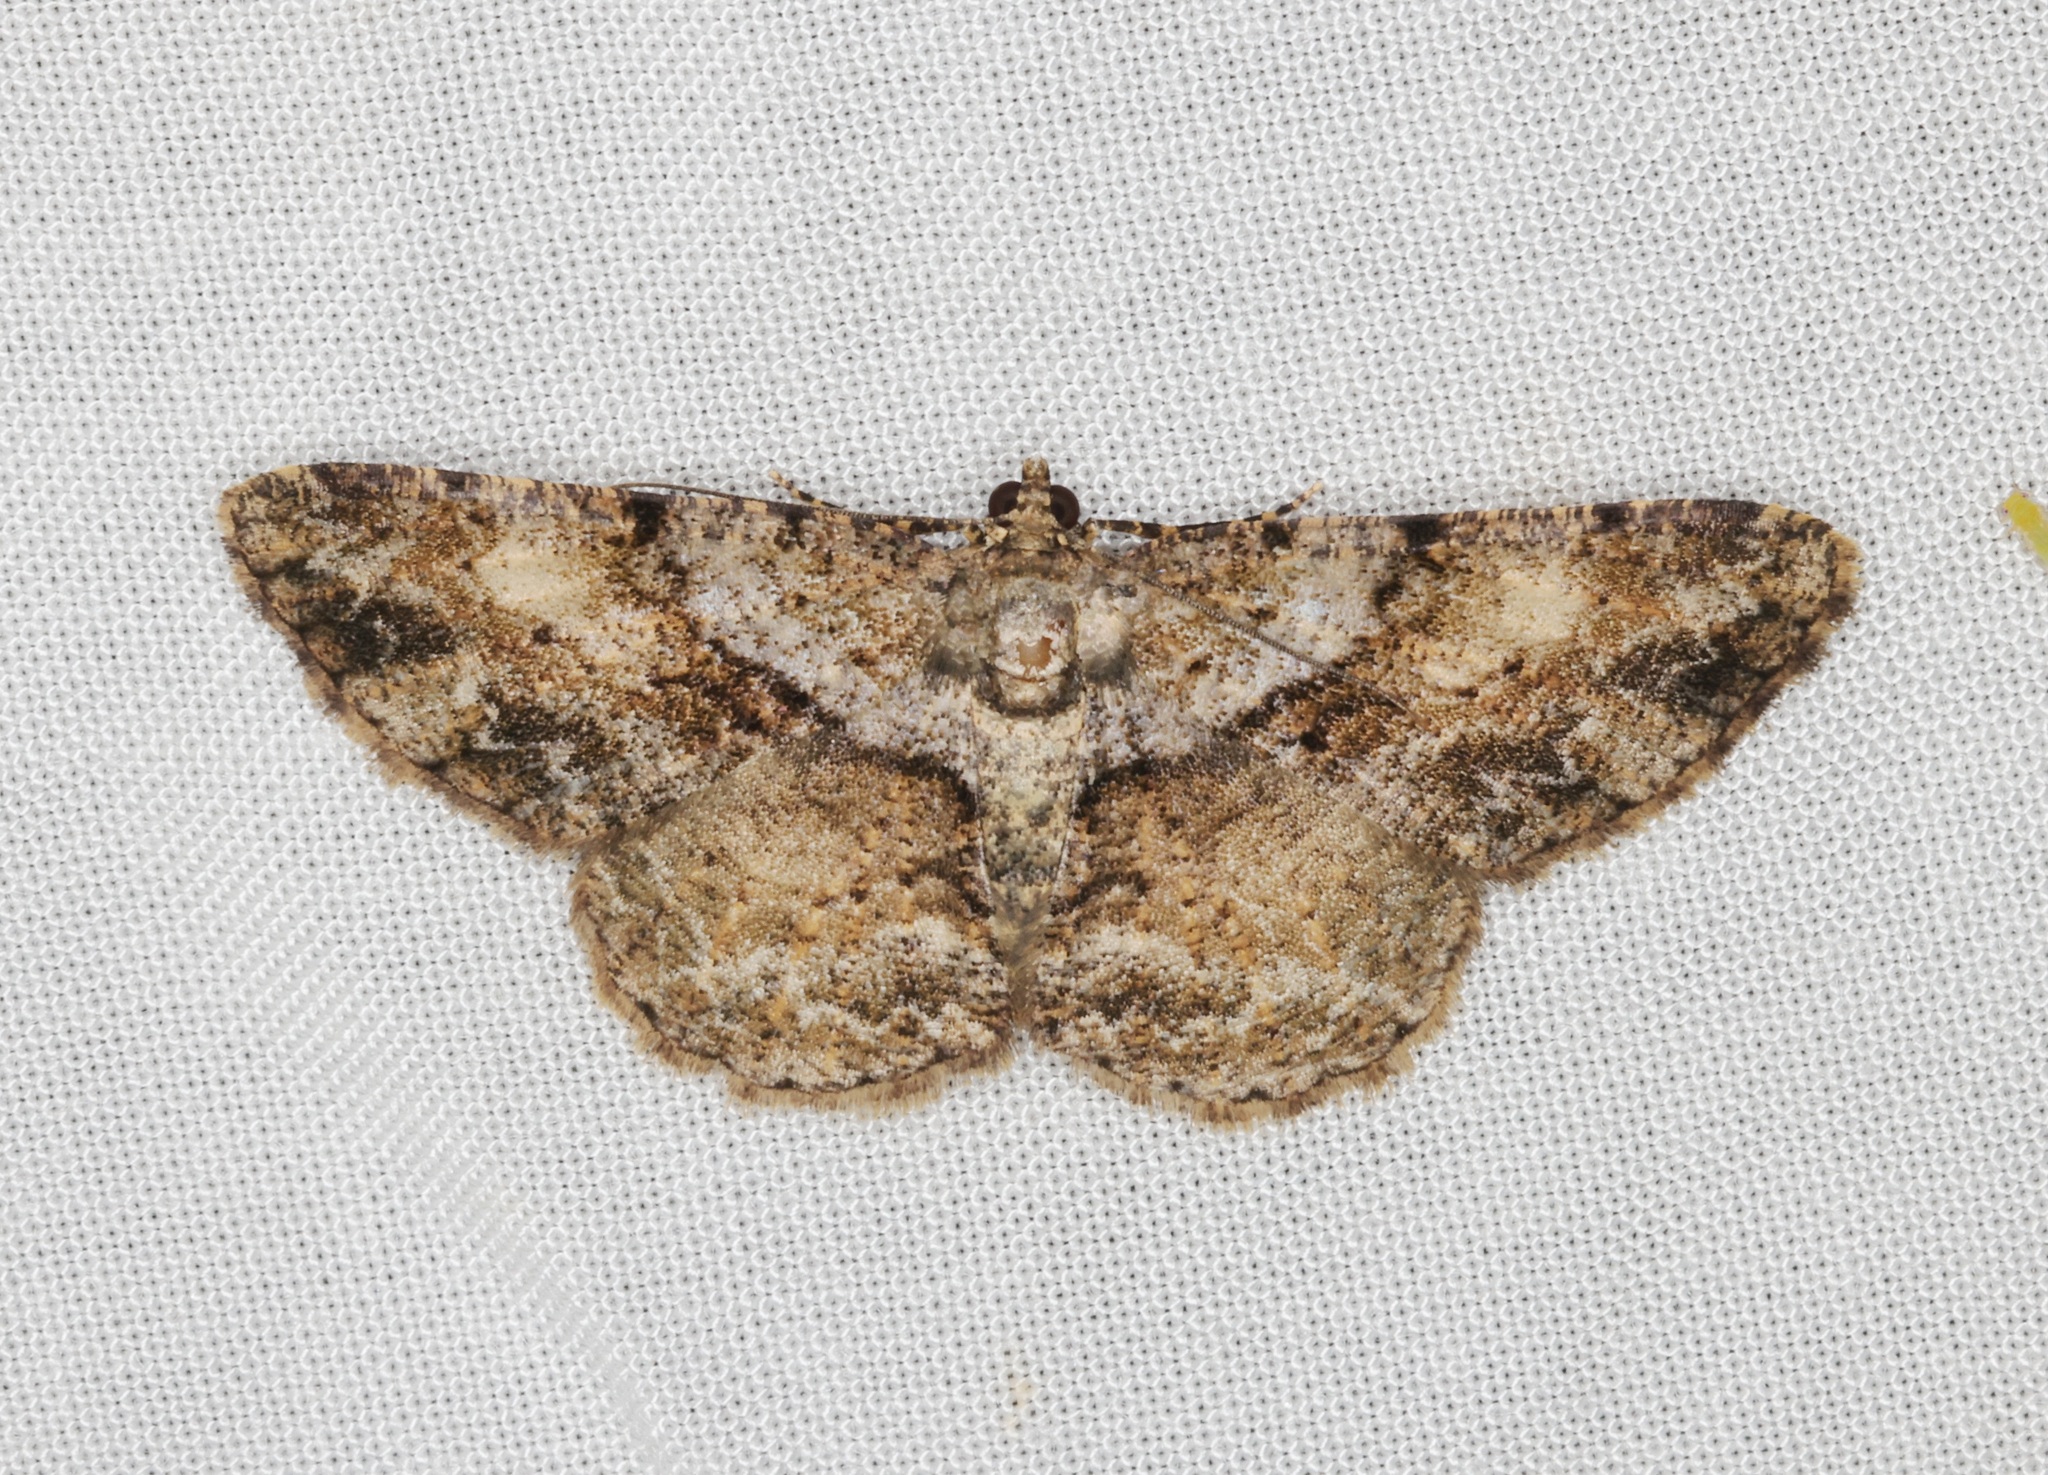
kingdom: Animalia
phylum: Arthropoda
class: Insecta
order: Lepidoptera
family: Geometridae
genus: Psilalcis
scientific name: Psilalcis galsworthyi
